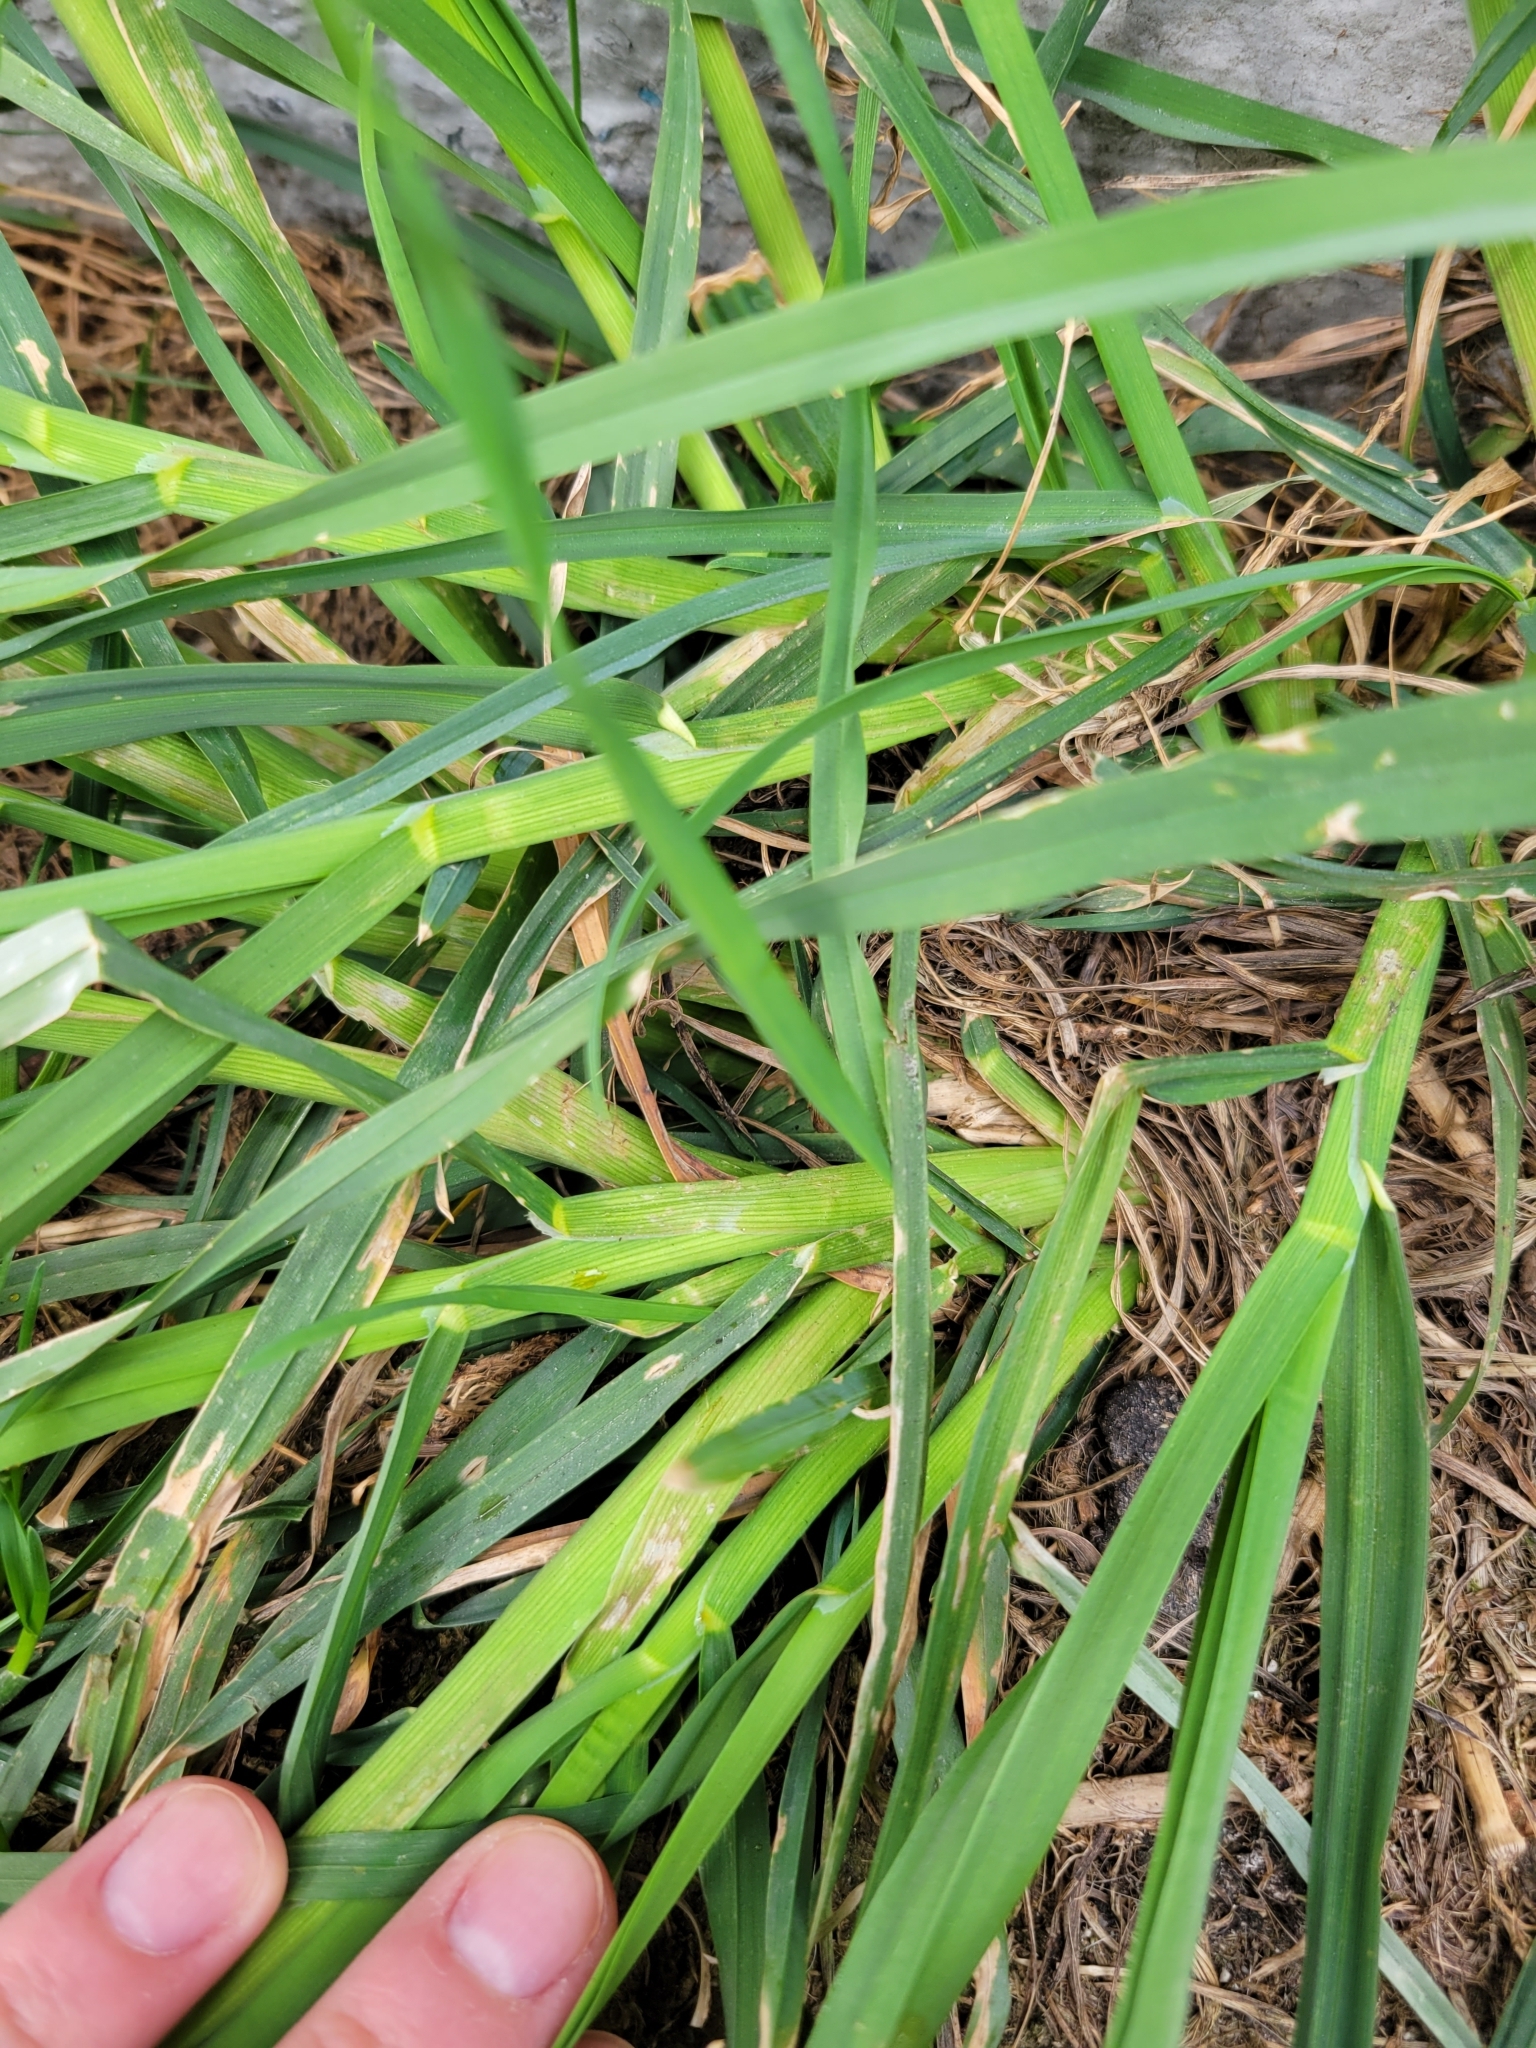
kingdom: Plantae
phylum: Tracheophyta
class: Liliopsida
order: Poales
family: Poaceae
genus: Dactylis
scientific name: Dactylis glomerata
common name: Orchardgrass
